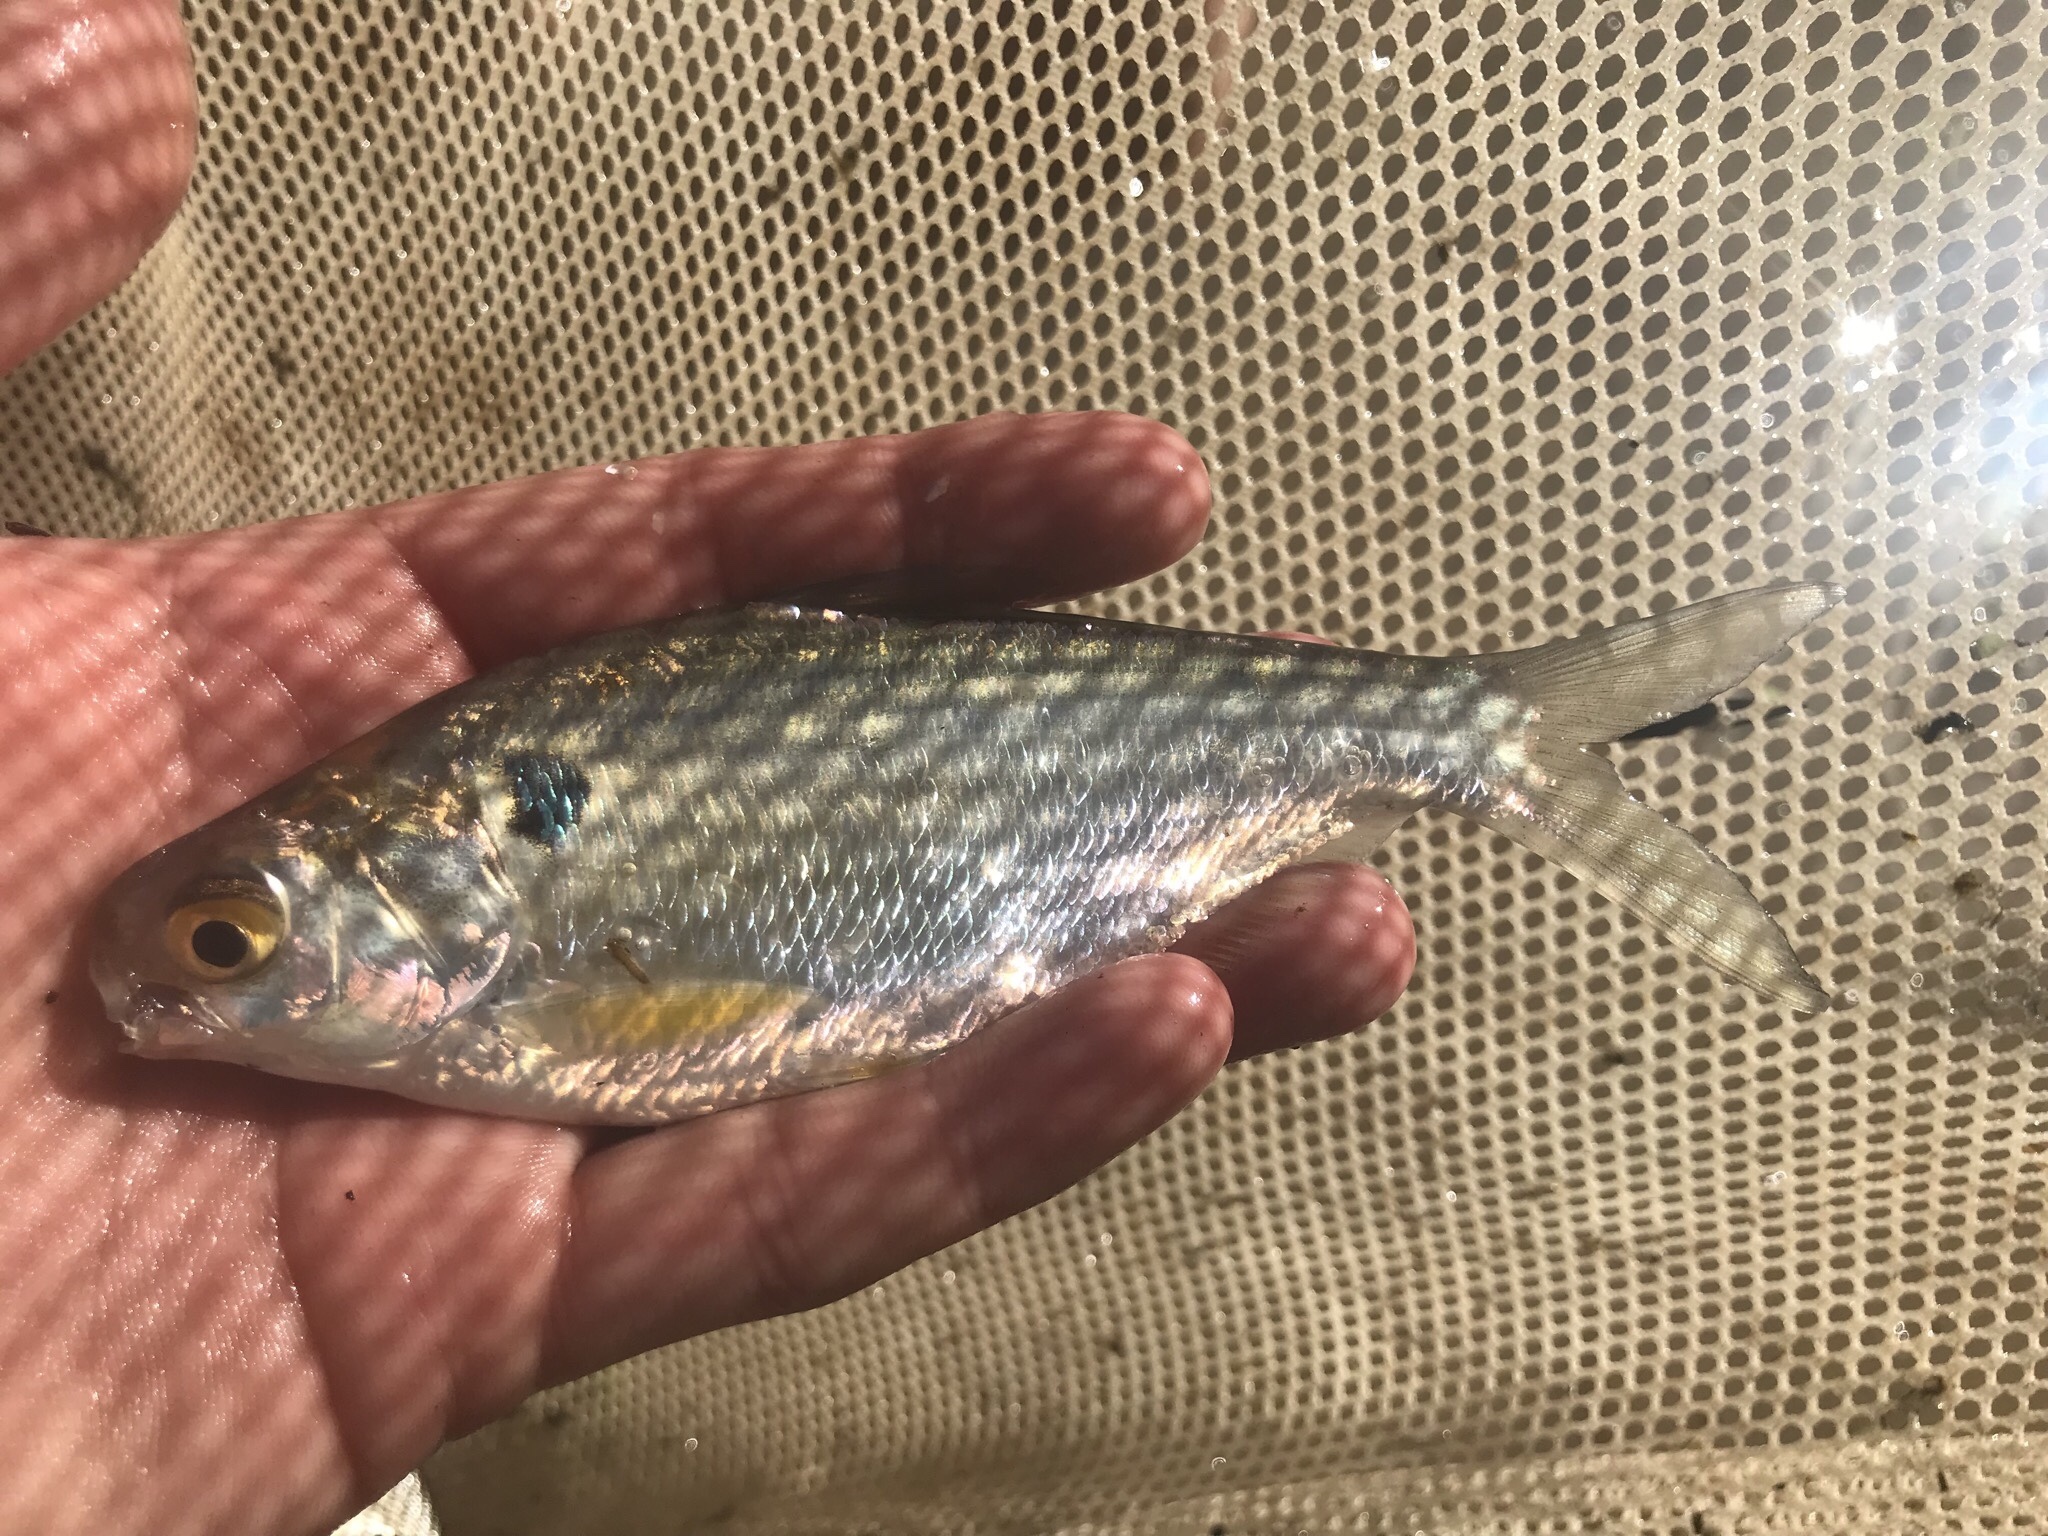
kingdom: Animalia
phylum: Chordata
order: Clupeiformes
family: Clupeidae
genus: Dorosoma
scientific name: Dorosoma cepedianum
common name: Gizzard shad
